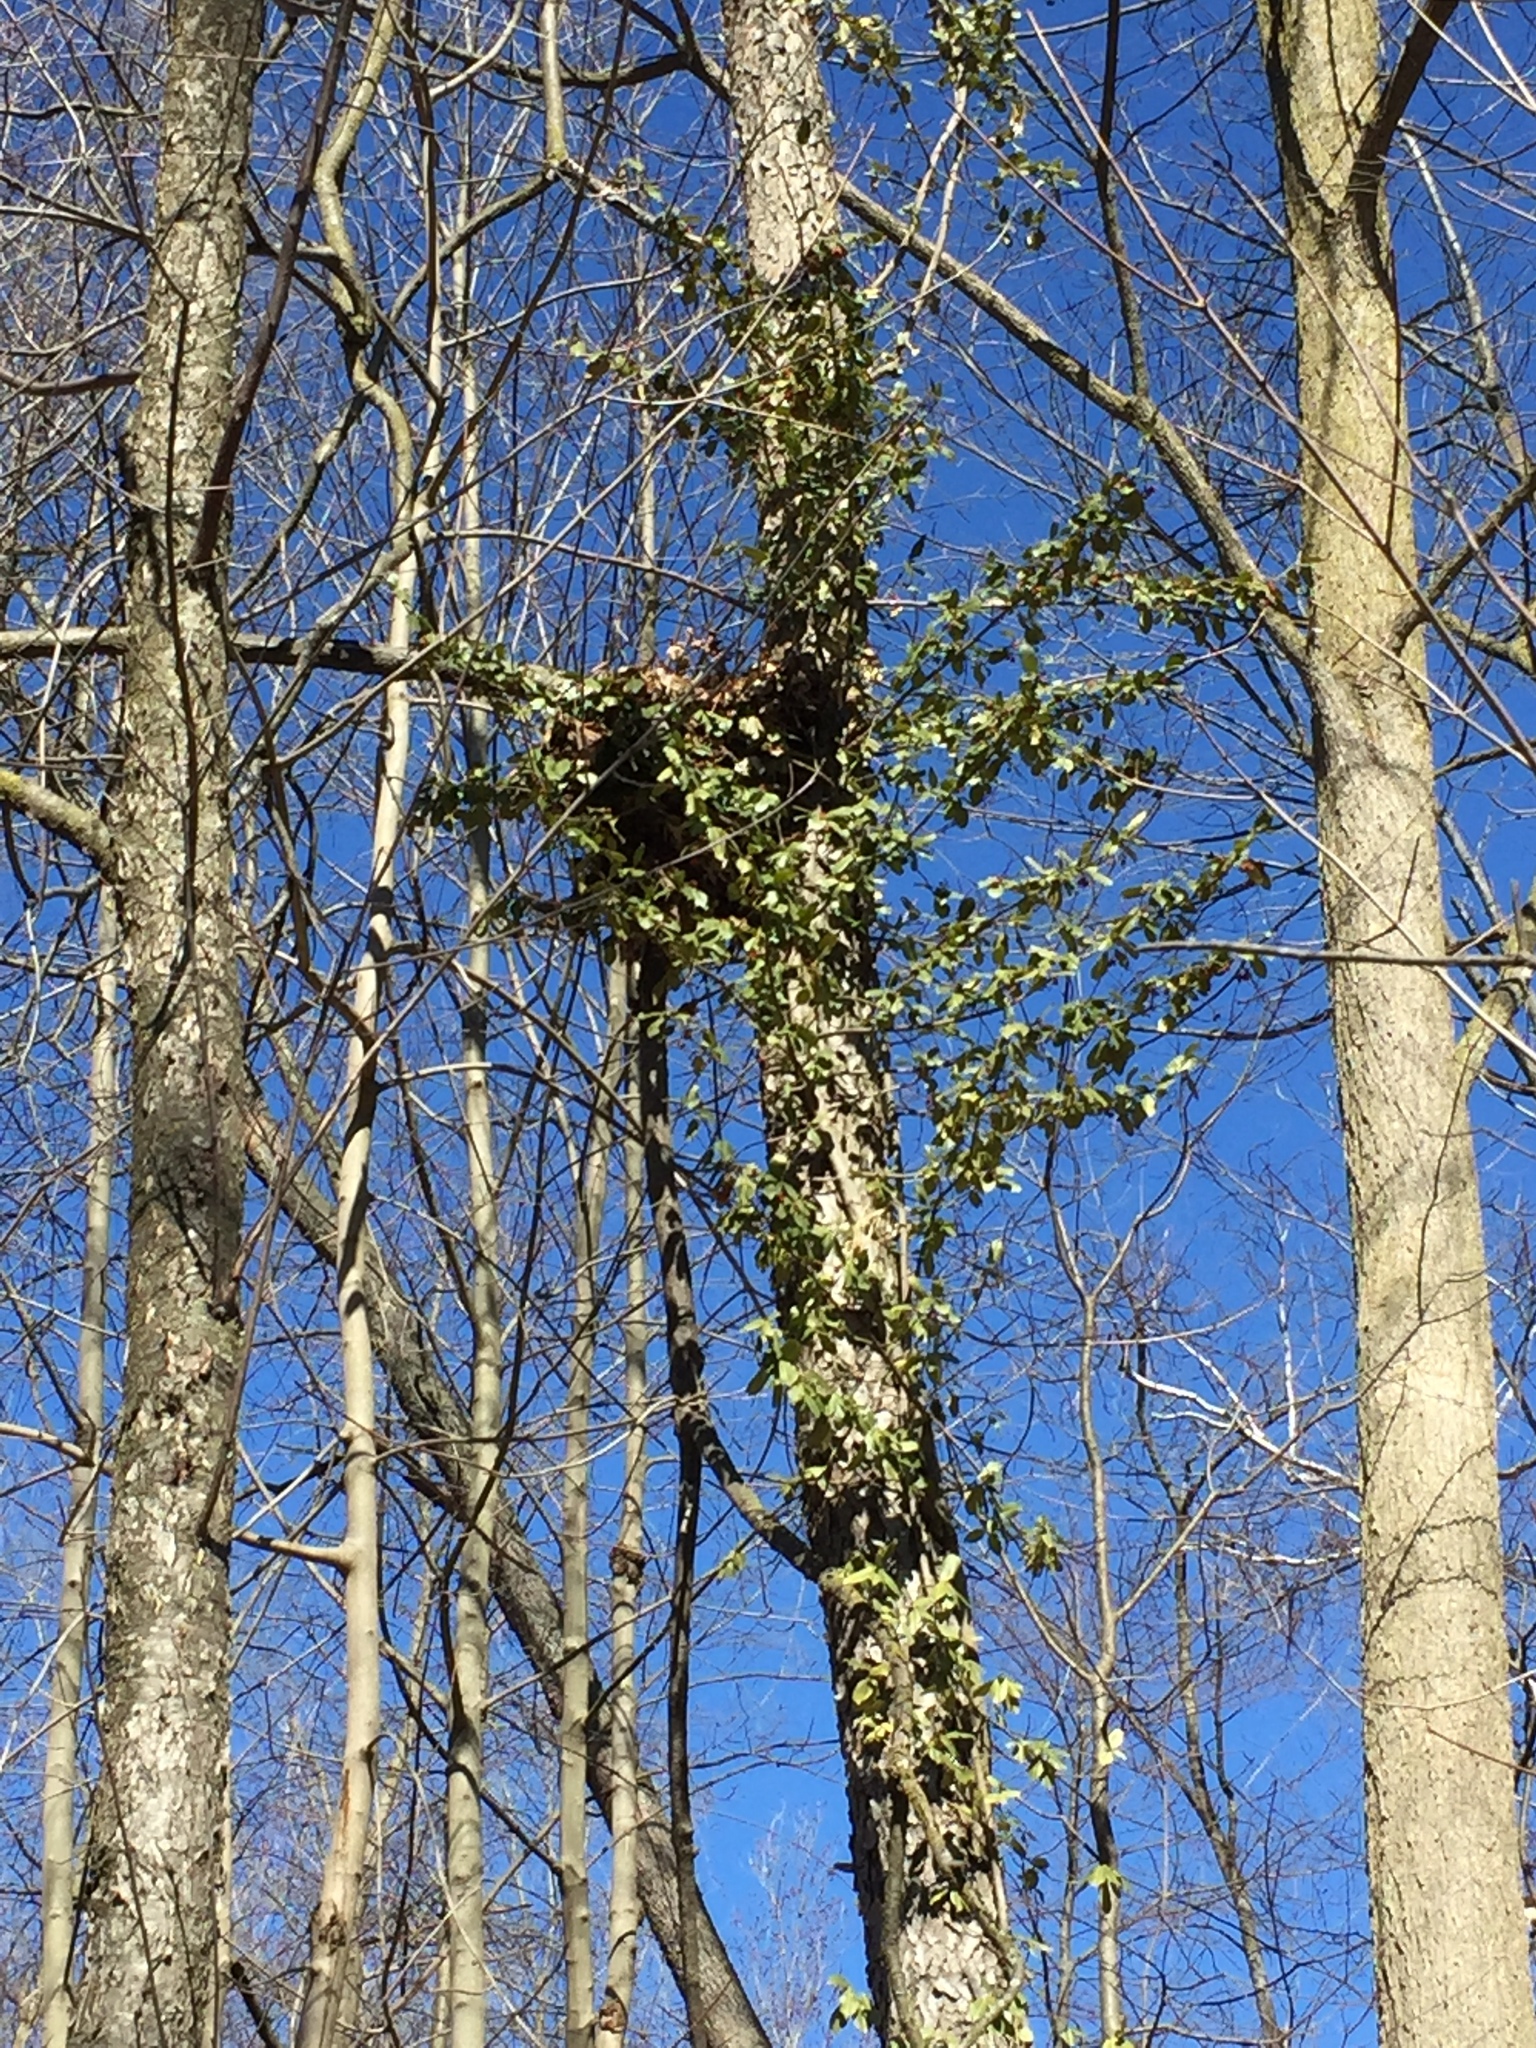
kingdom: Plantae
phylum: Tracheophyta
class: Magnoliopsida
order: Celastrales
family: Celastraceae
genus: Euonymus
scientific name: Euonymus fortunei
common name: Climbing euonymus
